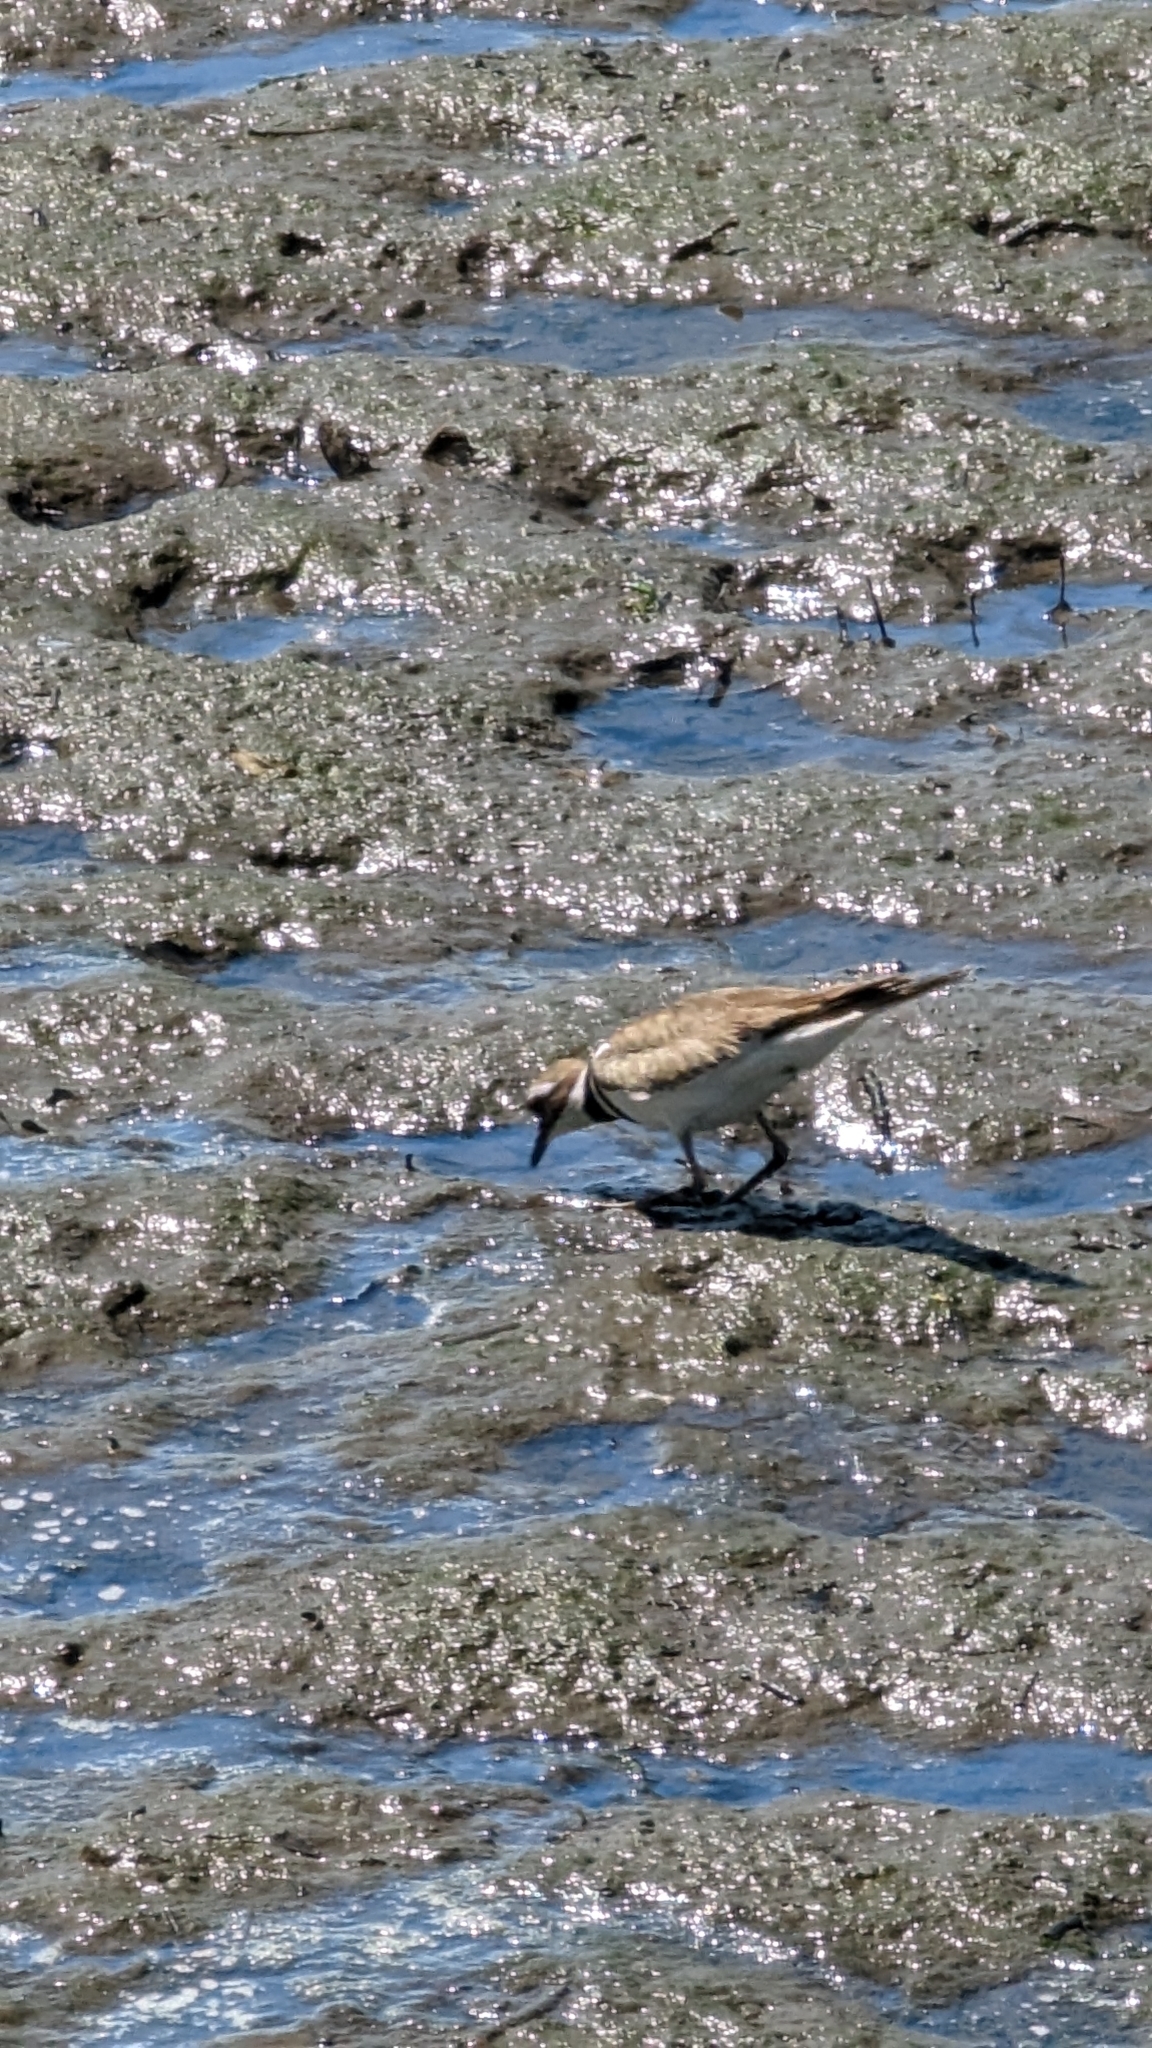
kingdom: Animalia
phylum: Chordata
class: Aves
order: Charadriiformes
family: Charadriidae
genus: Charadrius
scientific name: Charadrius vociferus
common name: Killdeer
